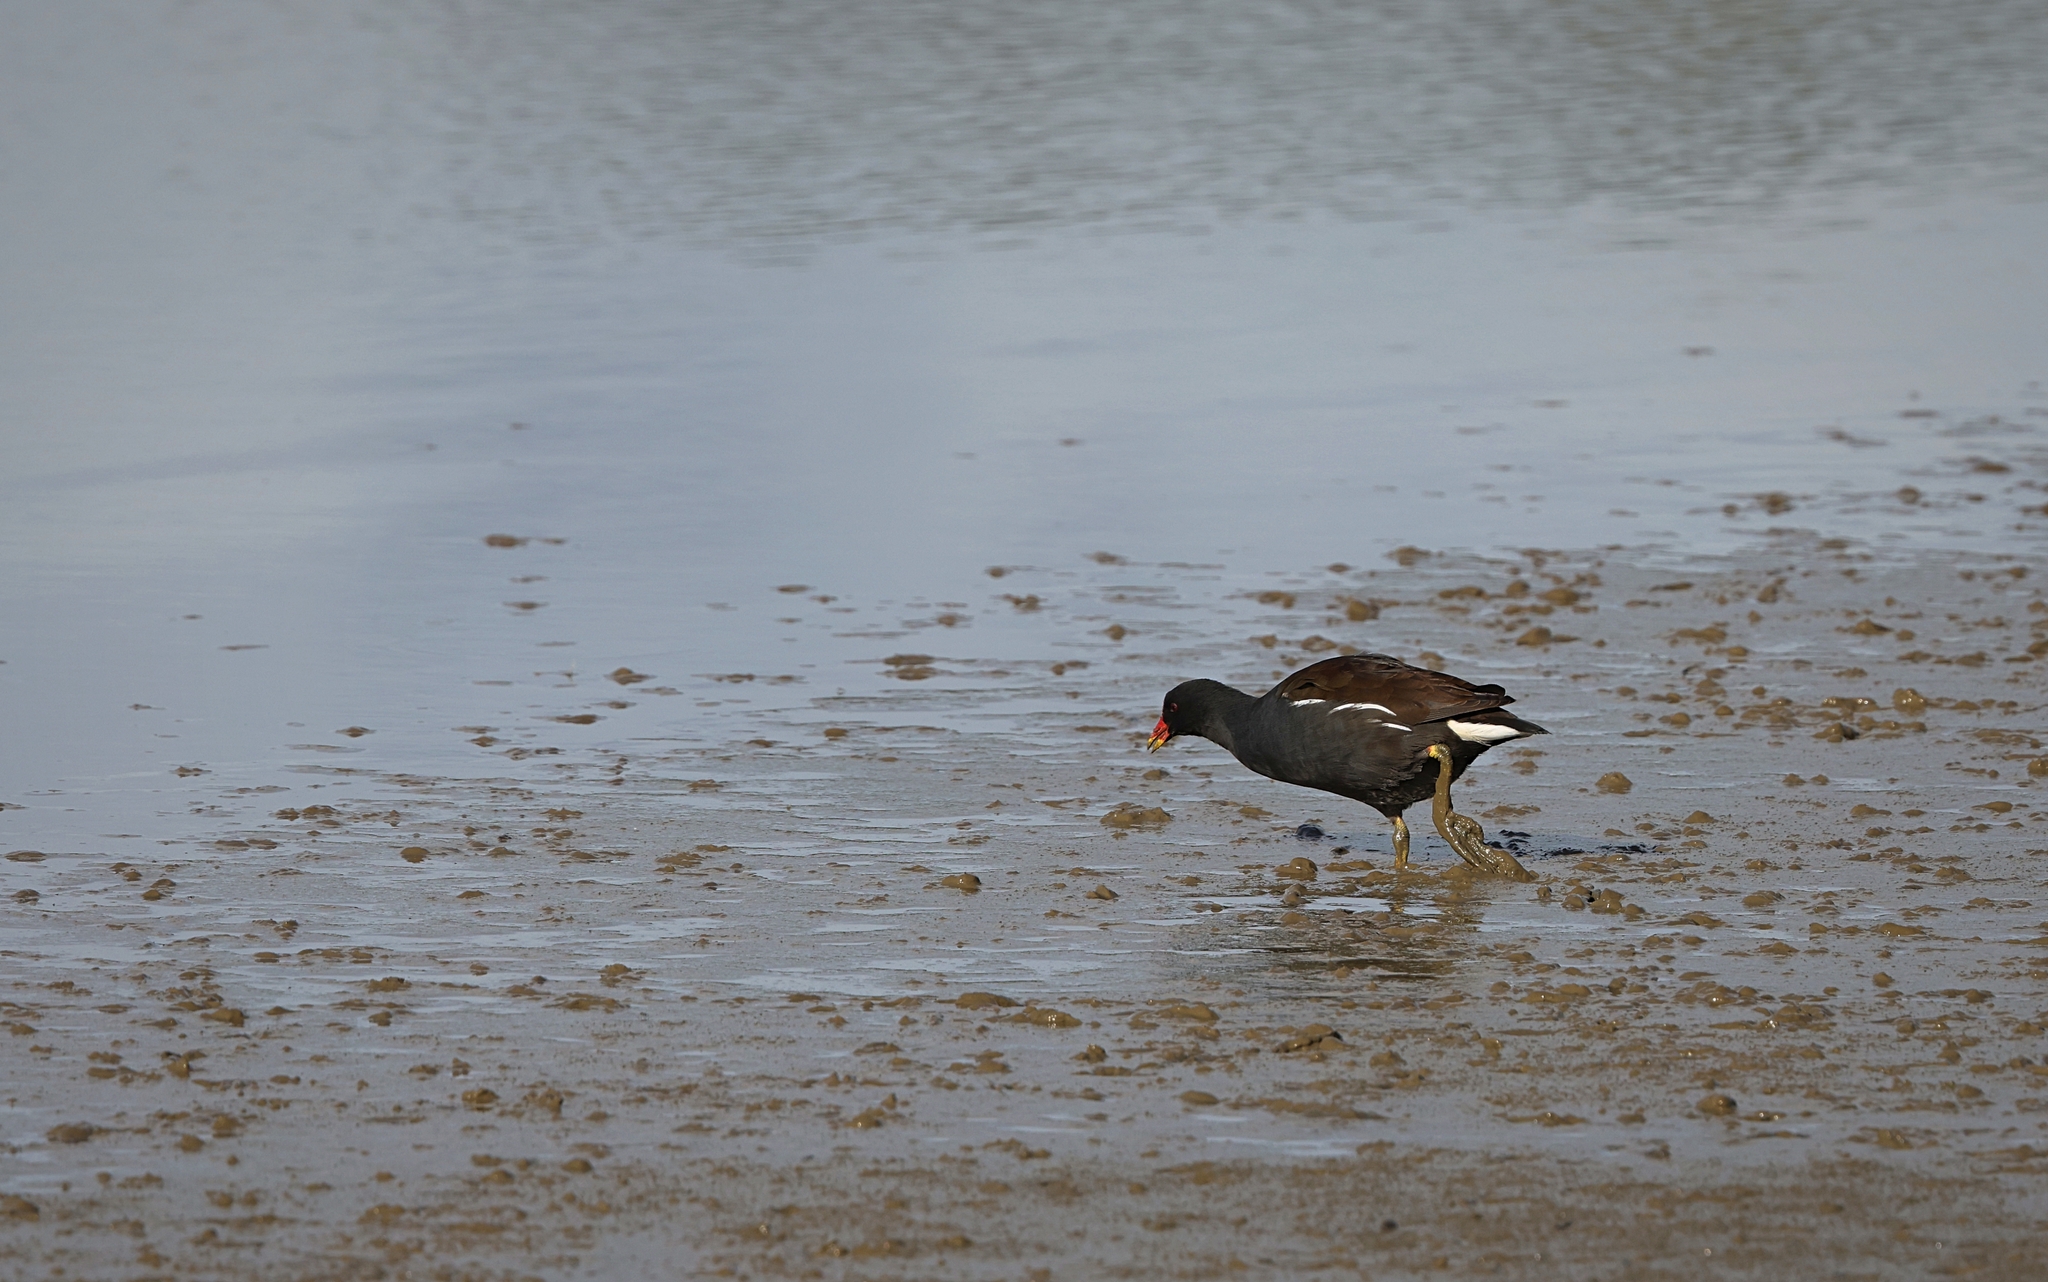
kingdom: Animalia
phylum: Chordata
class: Aves
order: Gruiformes
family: Rallidae
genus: Gallinula
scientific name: Gallinula chloropus
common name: Common moorhen
